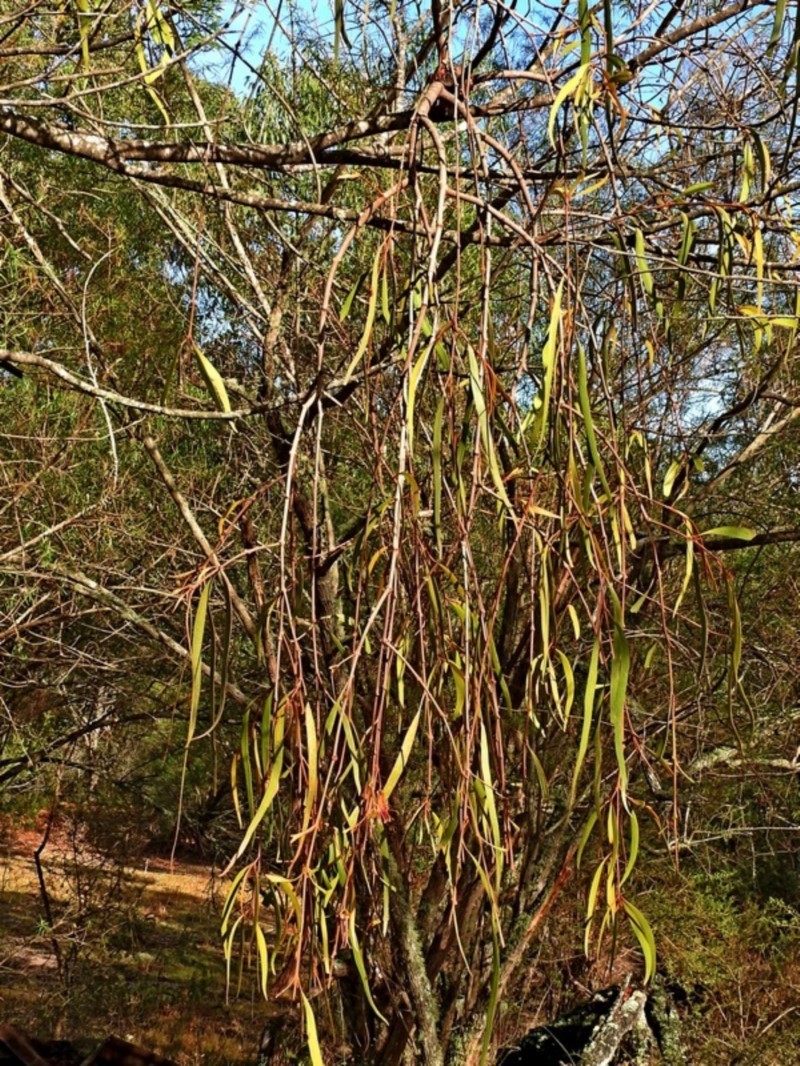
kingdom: Plantae
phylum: Tracheophyta
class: Magnoliopsida
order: Santalales
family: Loranthaceae
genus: Amyema
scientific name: Amyema pendula
